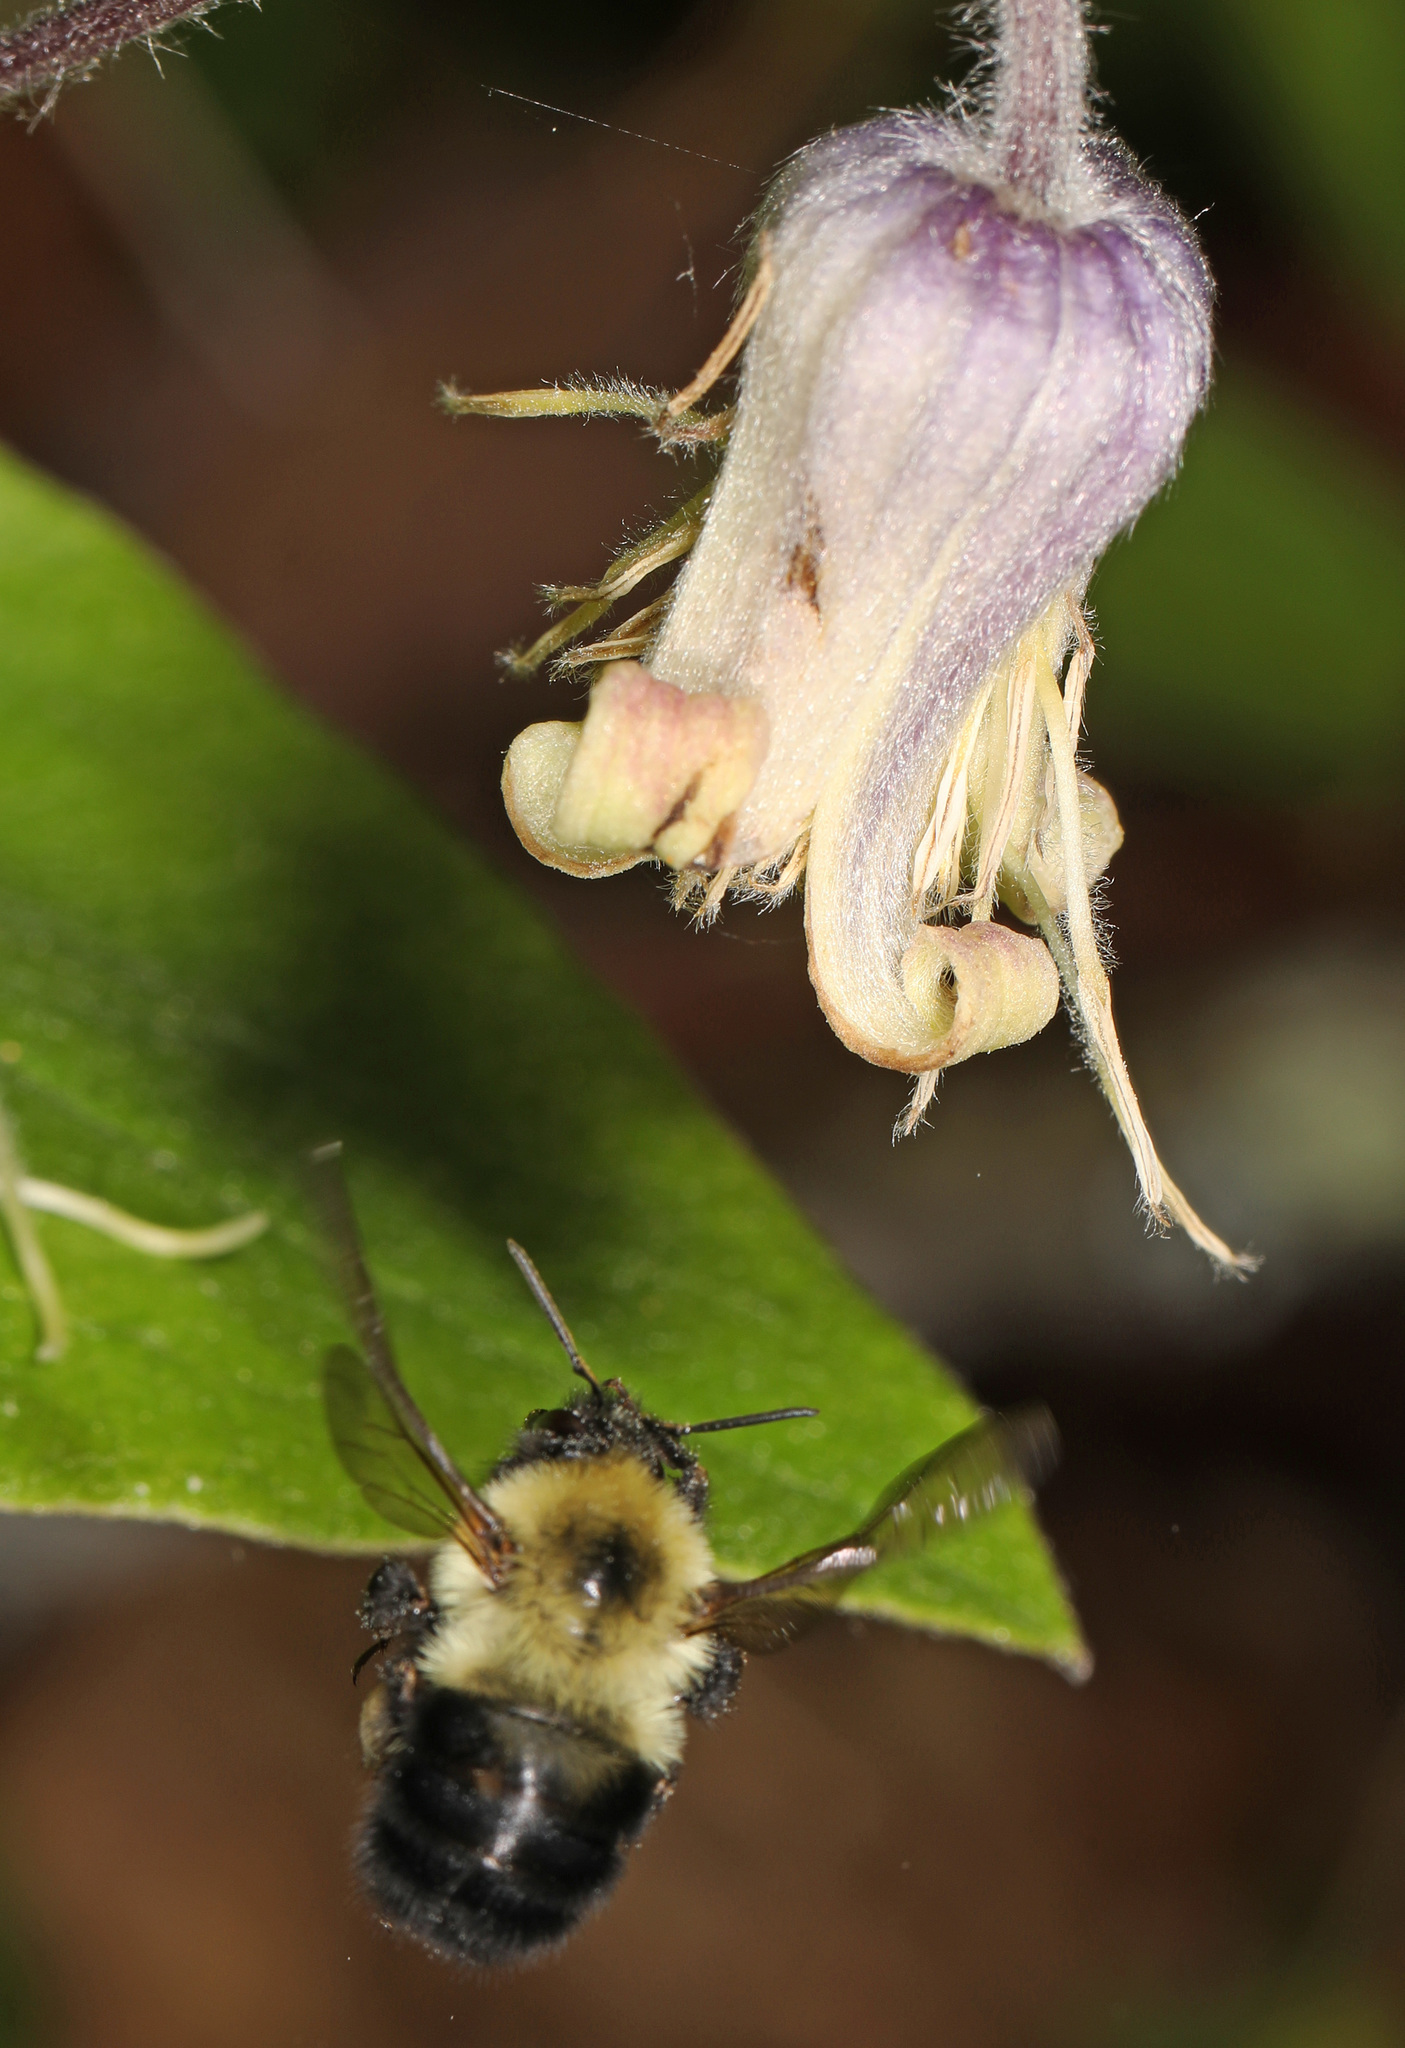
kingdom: Animalia
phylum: Arthropoda
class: Insecta
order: Hymenoptera
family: Apidae
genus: Bombus
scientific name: Bombus bimaculatus
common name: Two-spotted bumble bee
